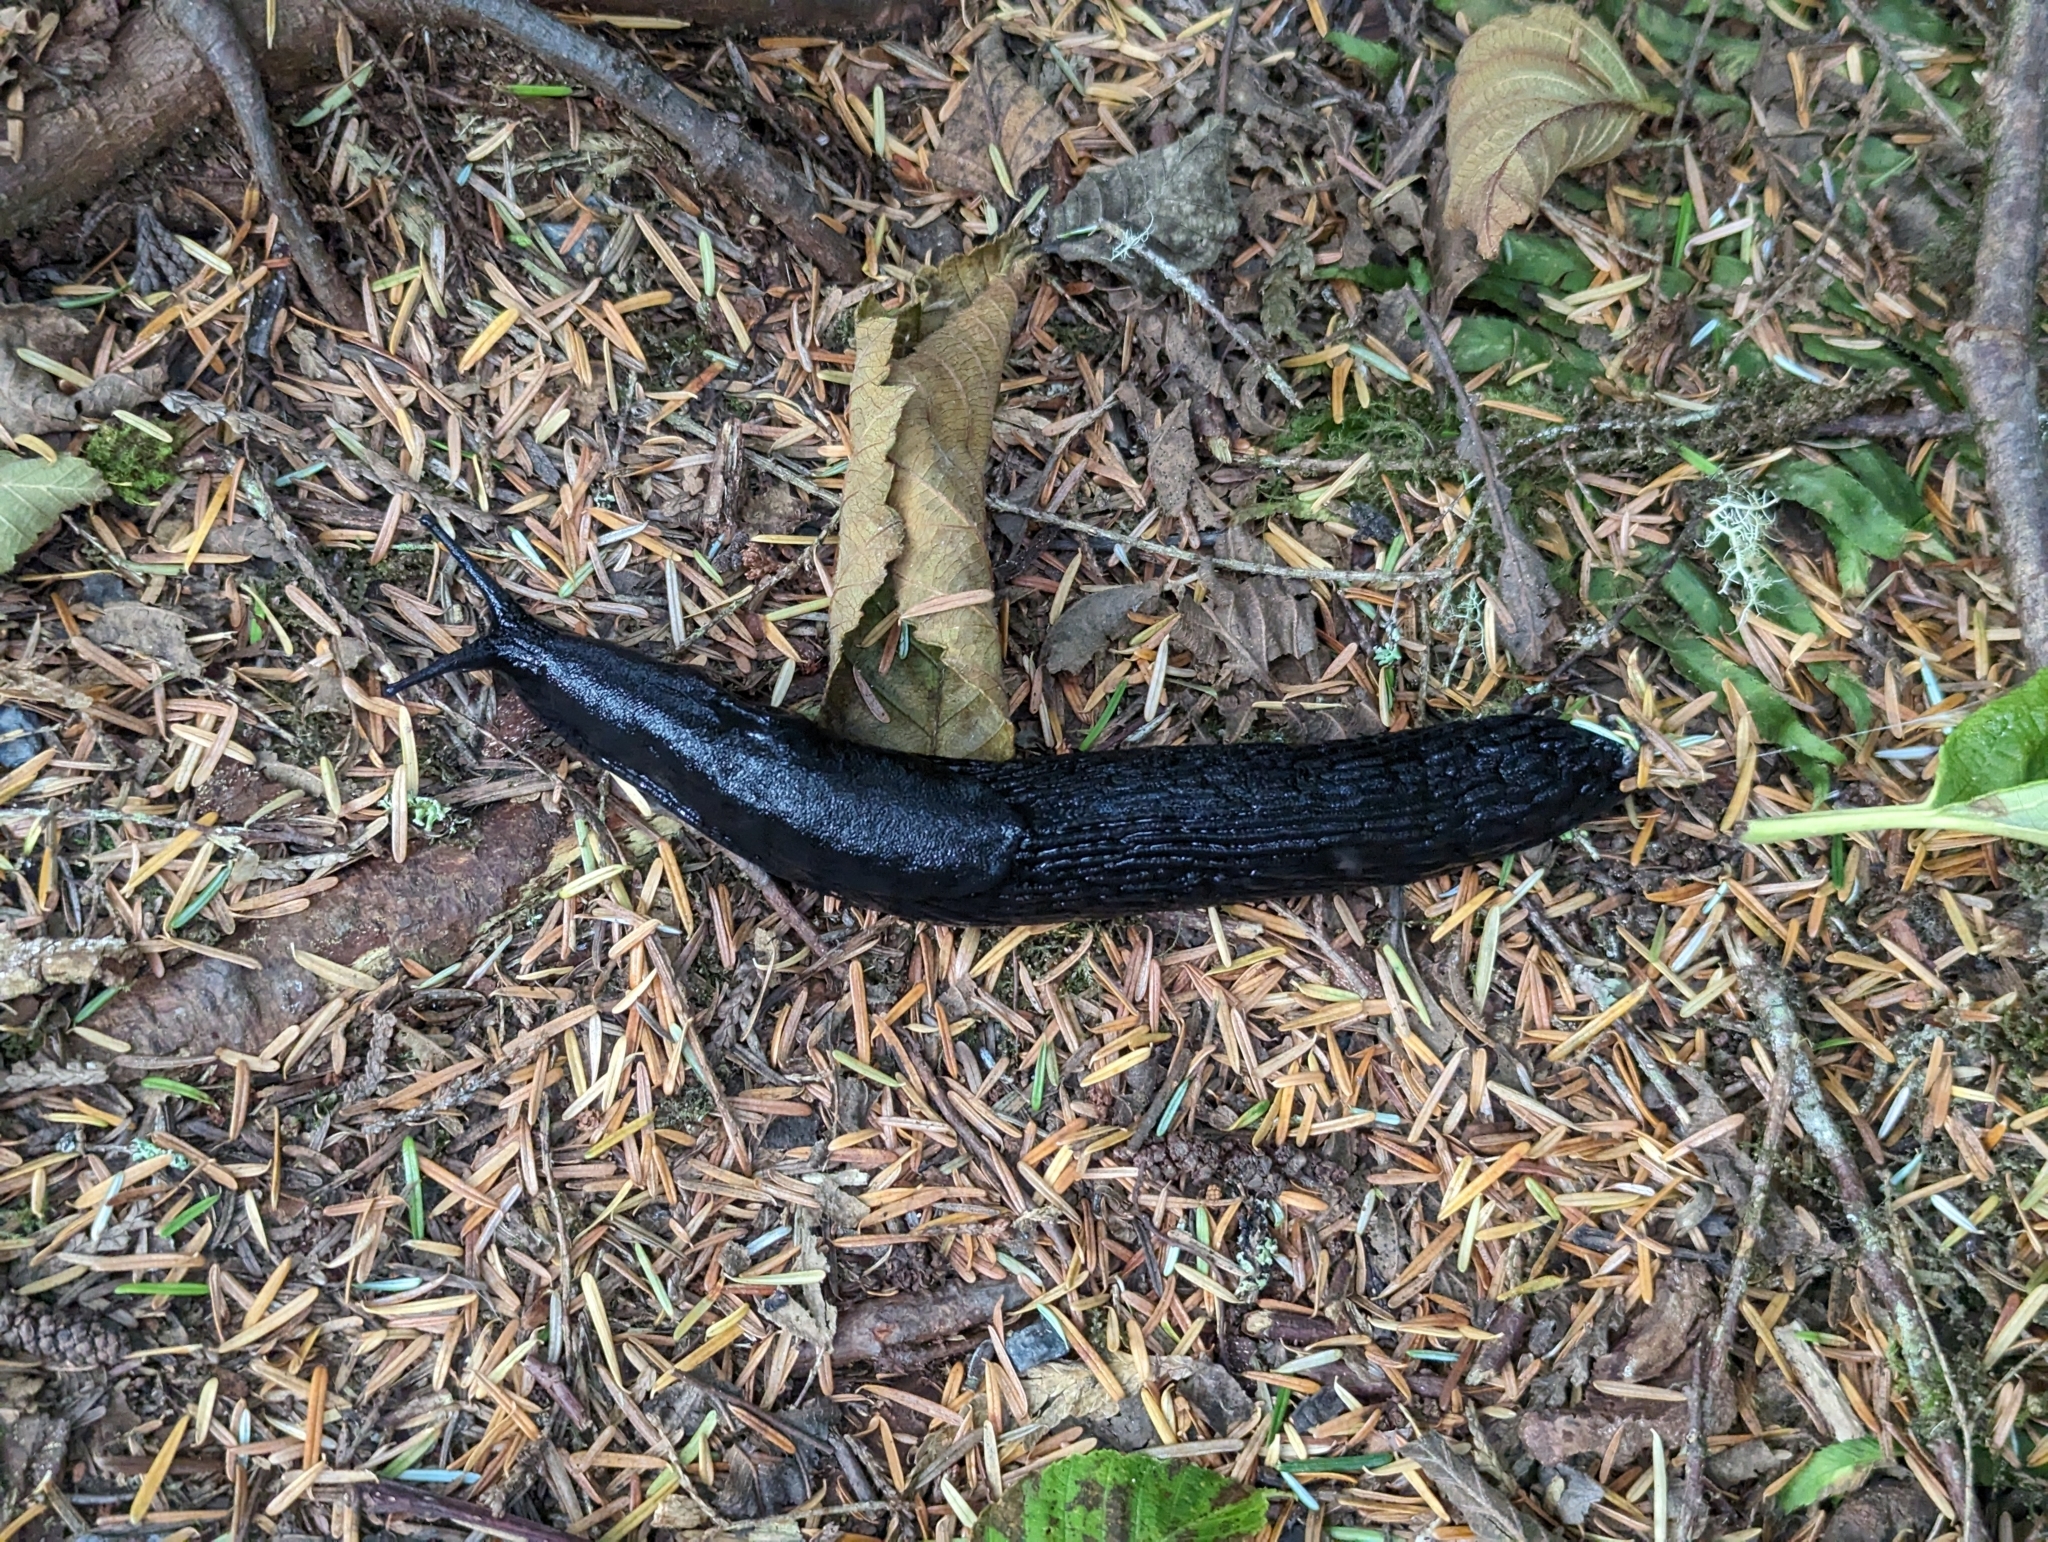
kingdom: Animalia
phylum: Mollusca
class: Gastropoda
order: Stylommatophora
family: Arionidae
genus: Arion
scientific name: Arion
